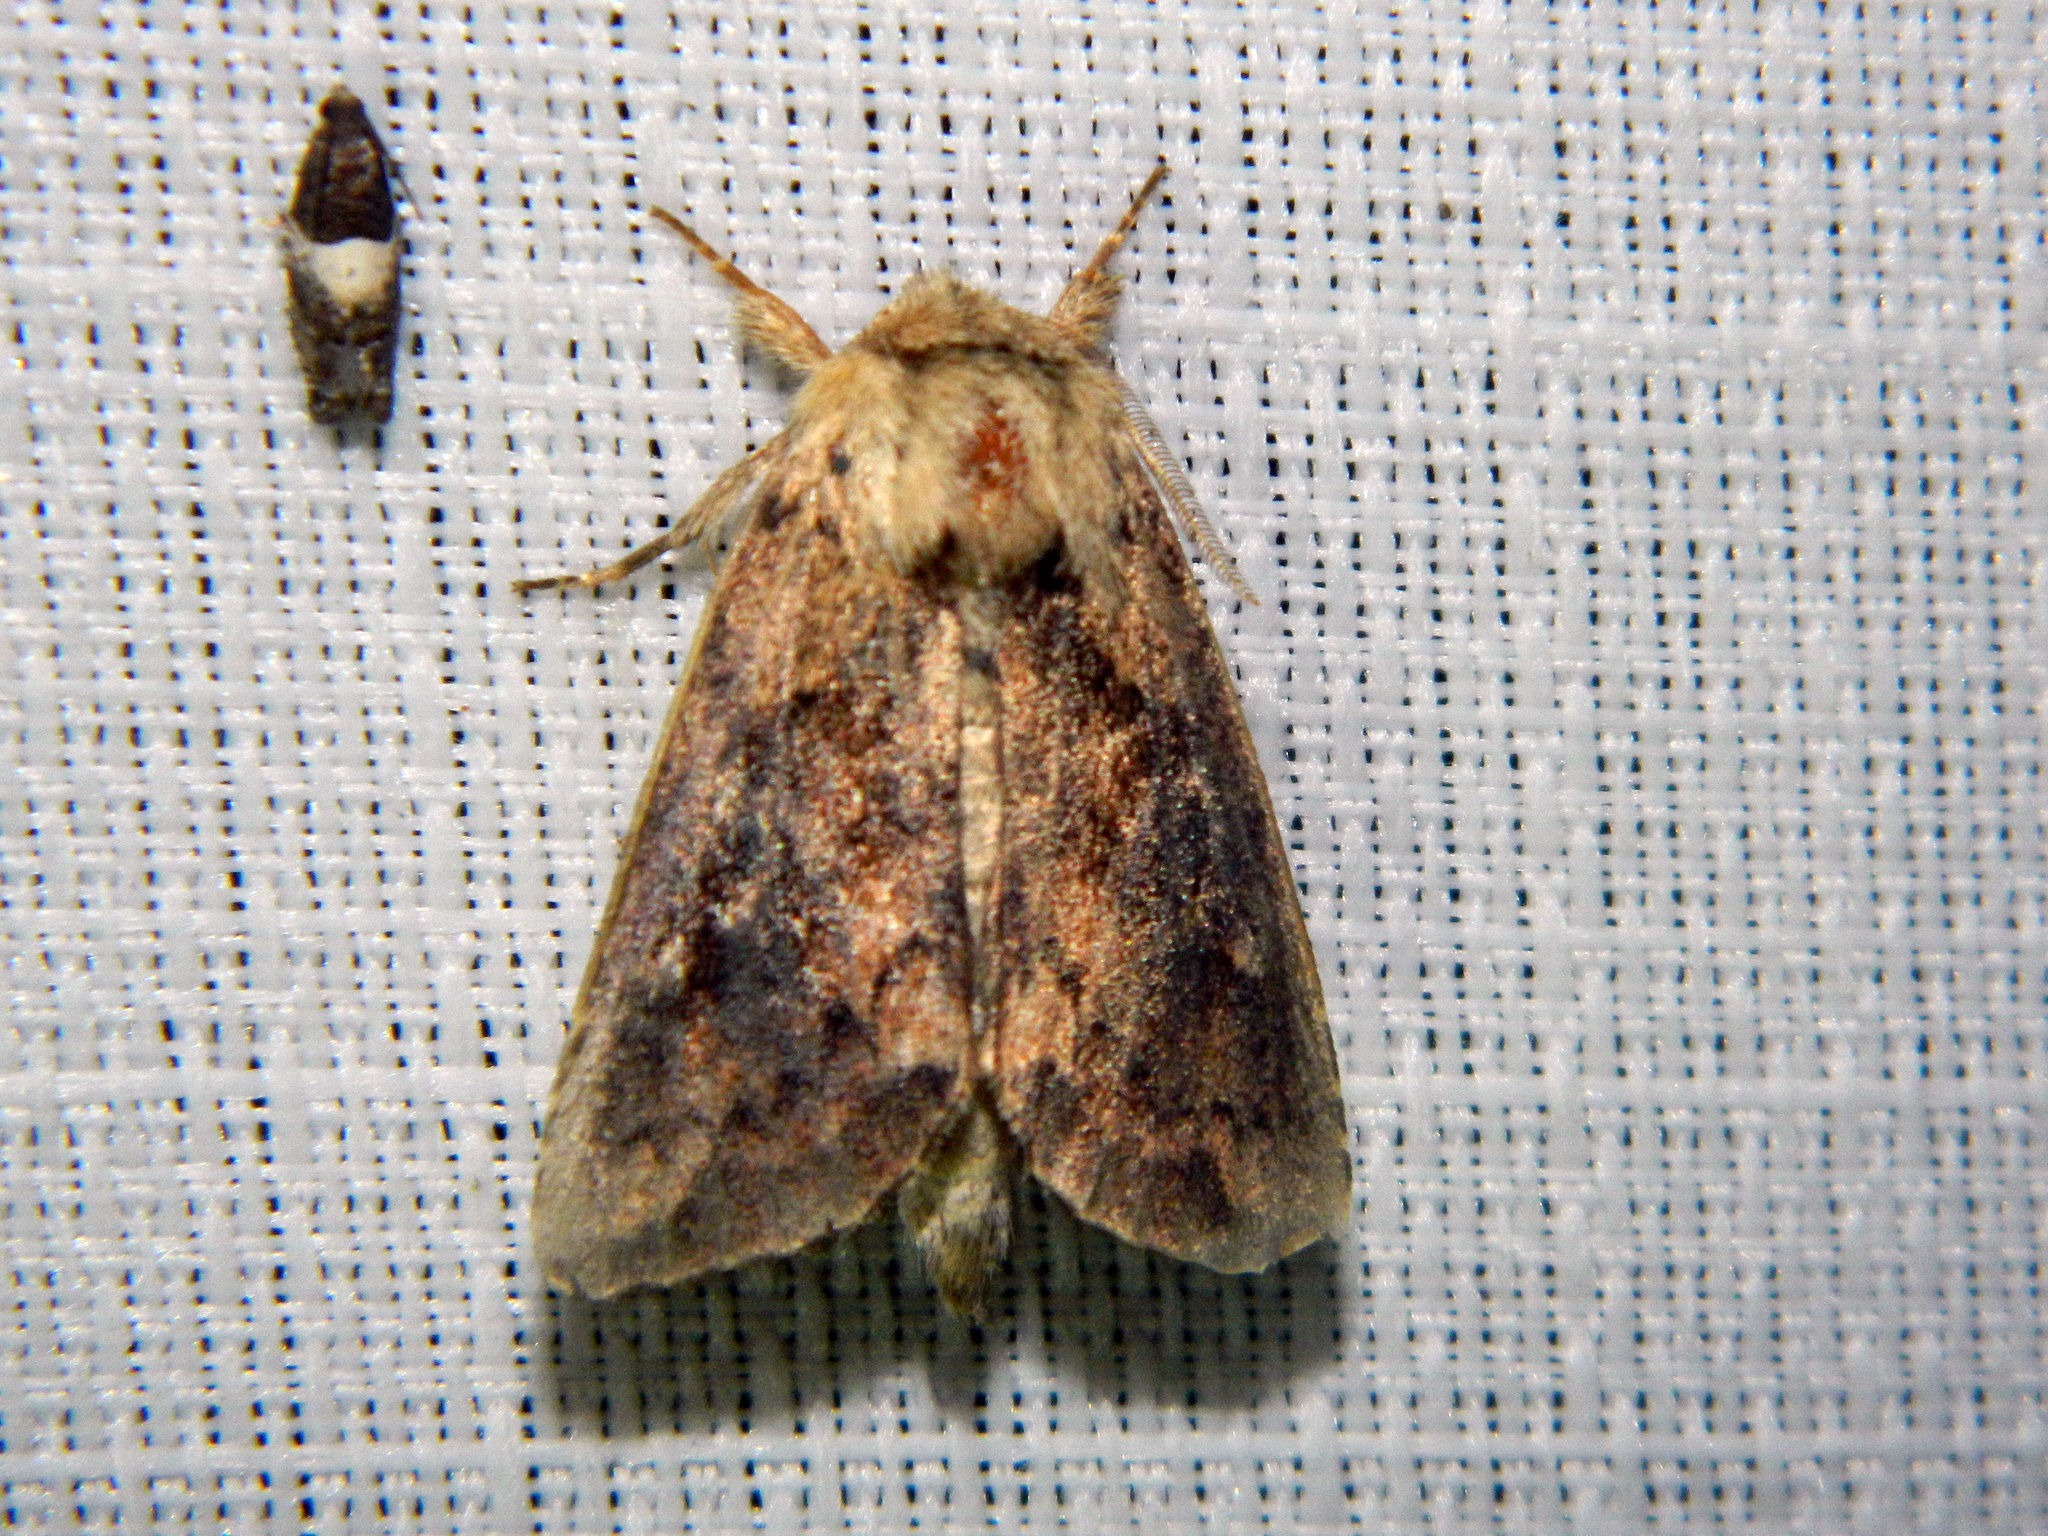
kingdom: Animalia
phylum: Arthropoda
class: Insecta
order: Lepidoptera
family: Noctuidae
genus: Bellura
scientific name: Bellura vulnifica
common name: Black-tailed diver moth
